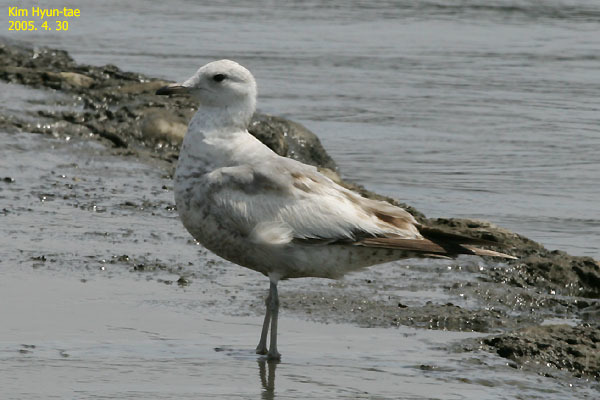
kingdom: Animalia
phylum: Chordata
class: Aves
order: Charadriiformes
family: Laridae
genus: Larus
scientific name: Larus canus
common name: Mew gull
